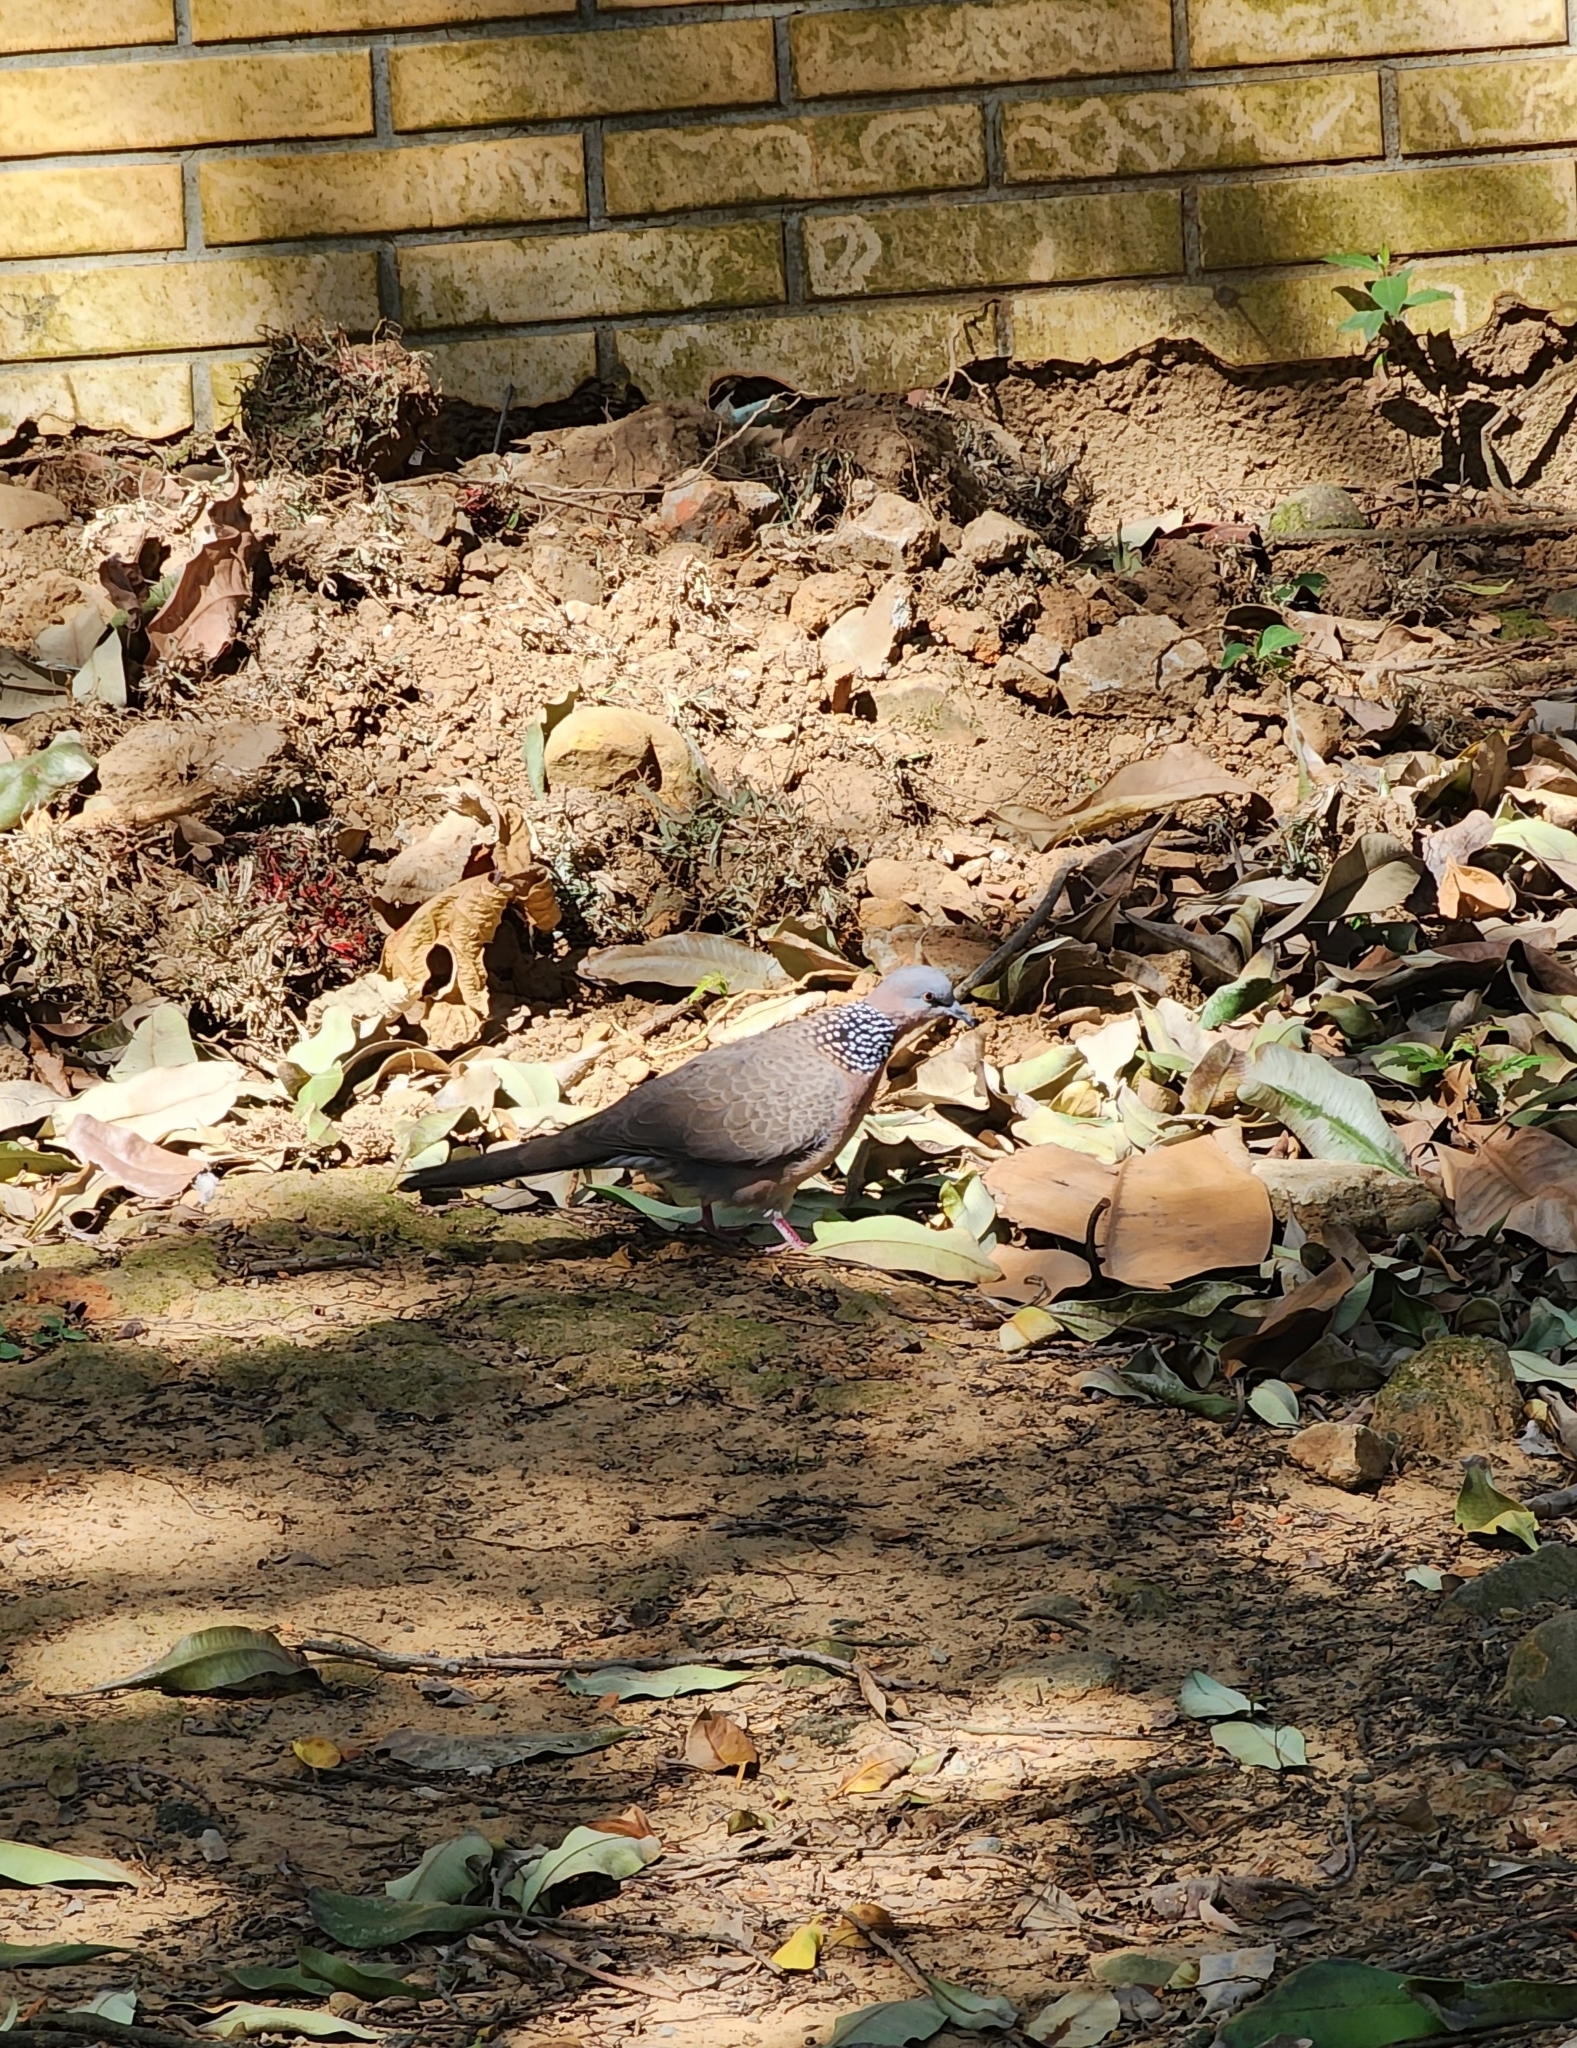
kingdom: Animalia
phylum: Chordata
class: Aves
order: Columbiformes
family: Columbidae
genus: Spilopelia
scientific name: Spilopelia chinensis
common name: Spotted dove
